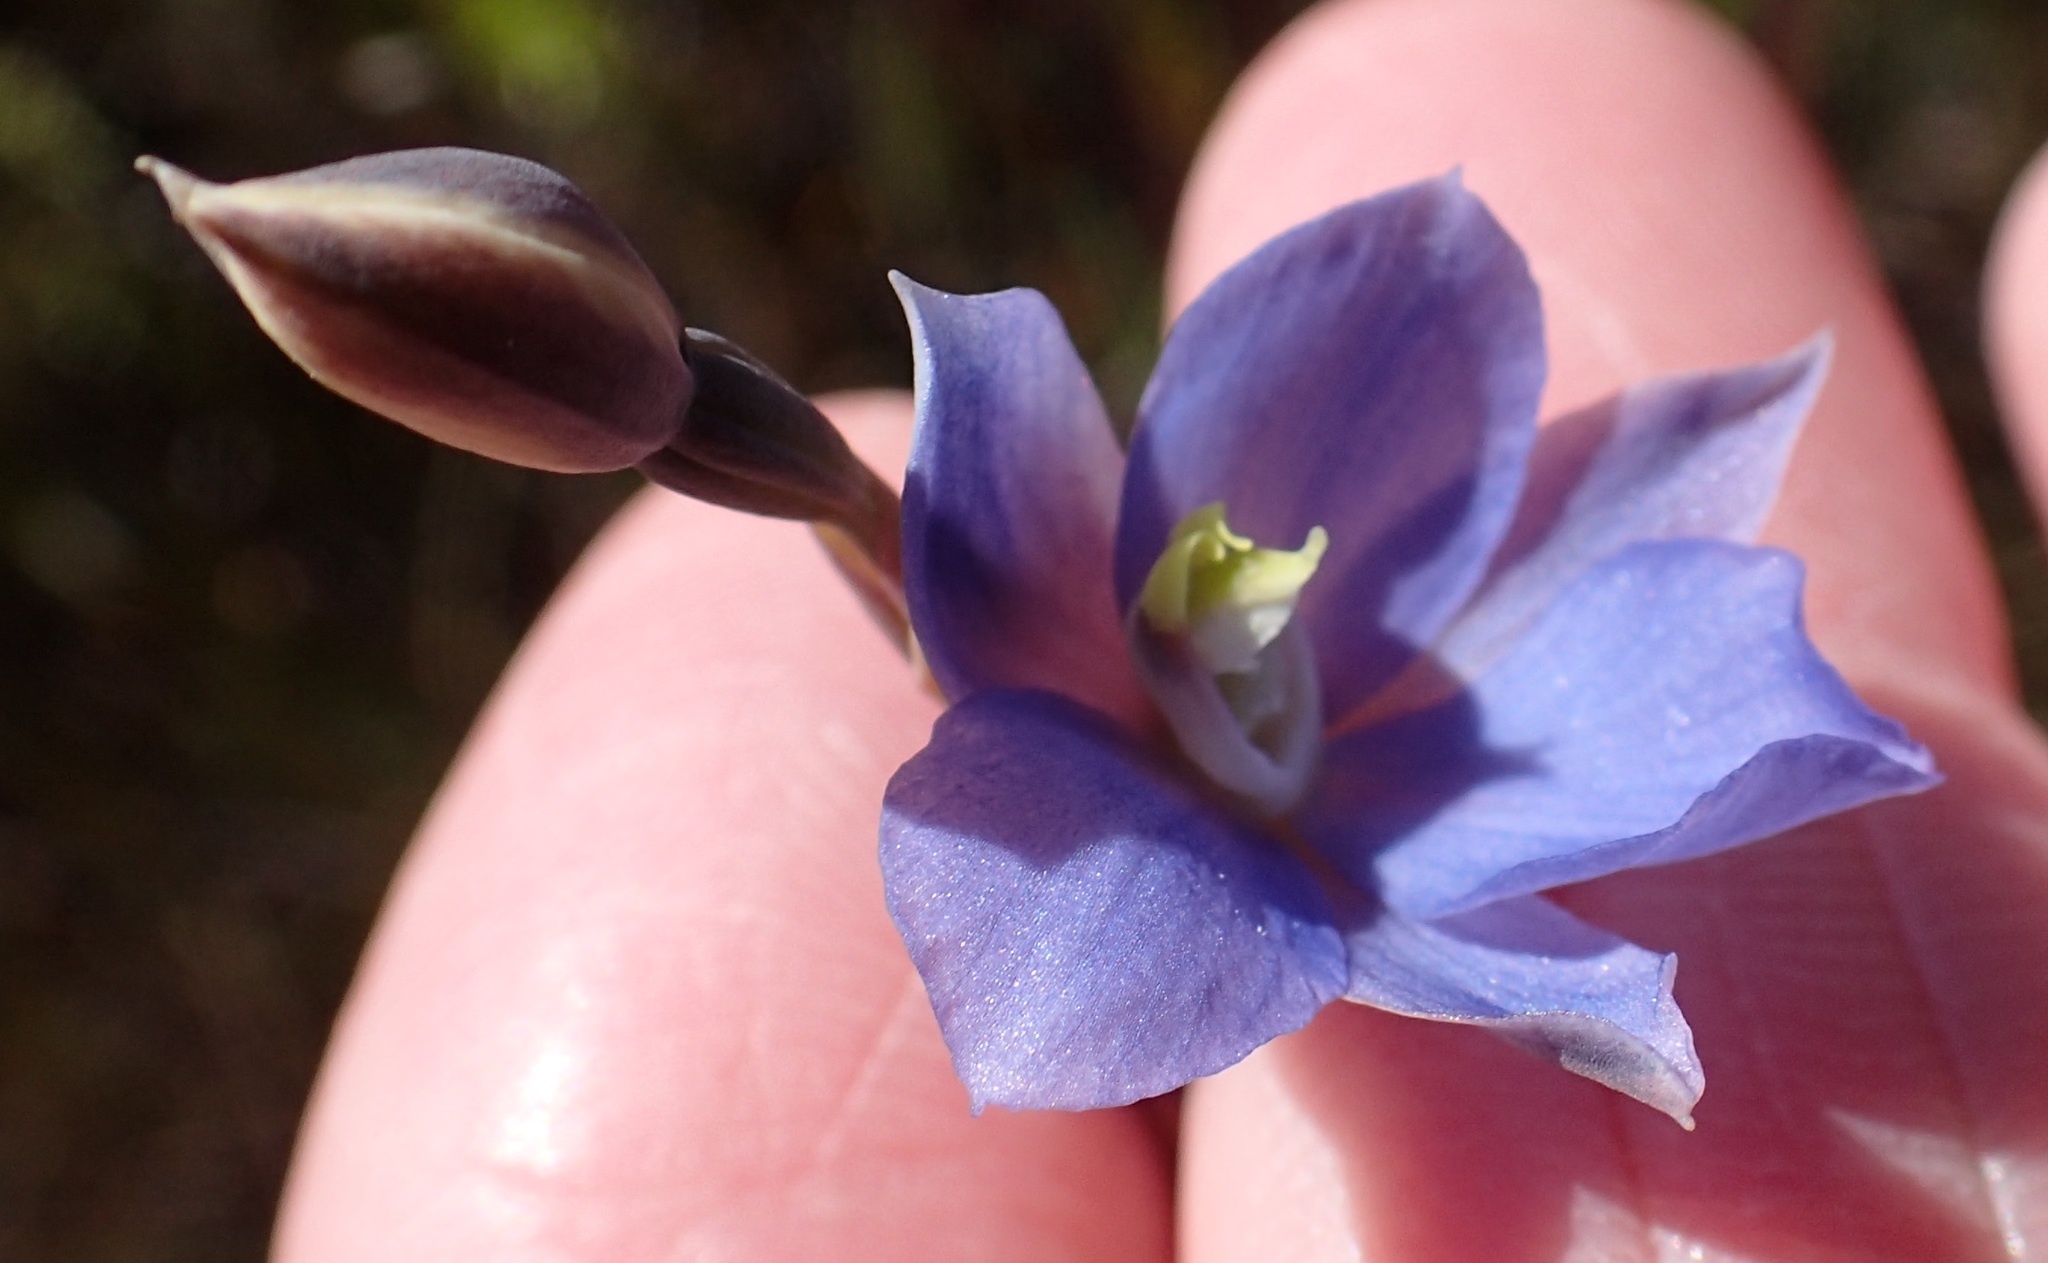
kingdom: Plantae
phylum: Tracheophyta
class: Liliopsida
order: Asparagales
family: Orchidaceae
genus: Thelymitra
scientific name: Thelymitra cyanea
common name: Blue sun-orchid
